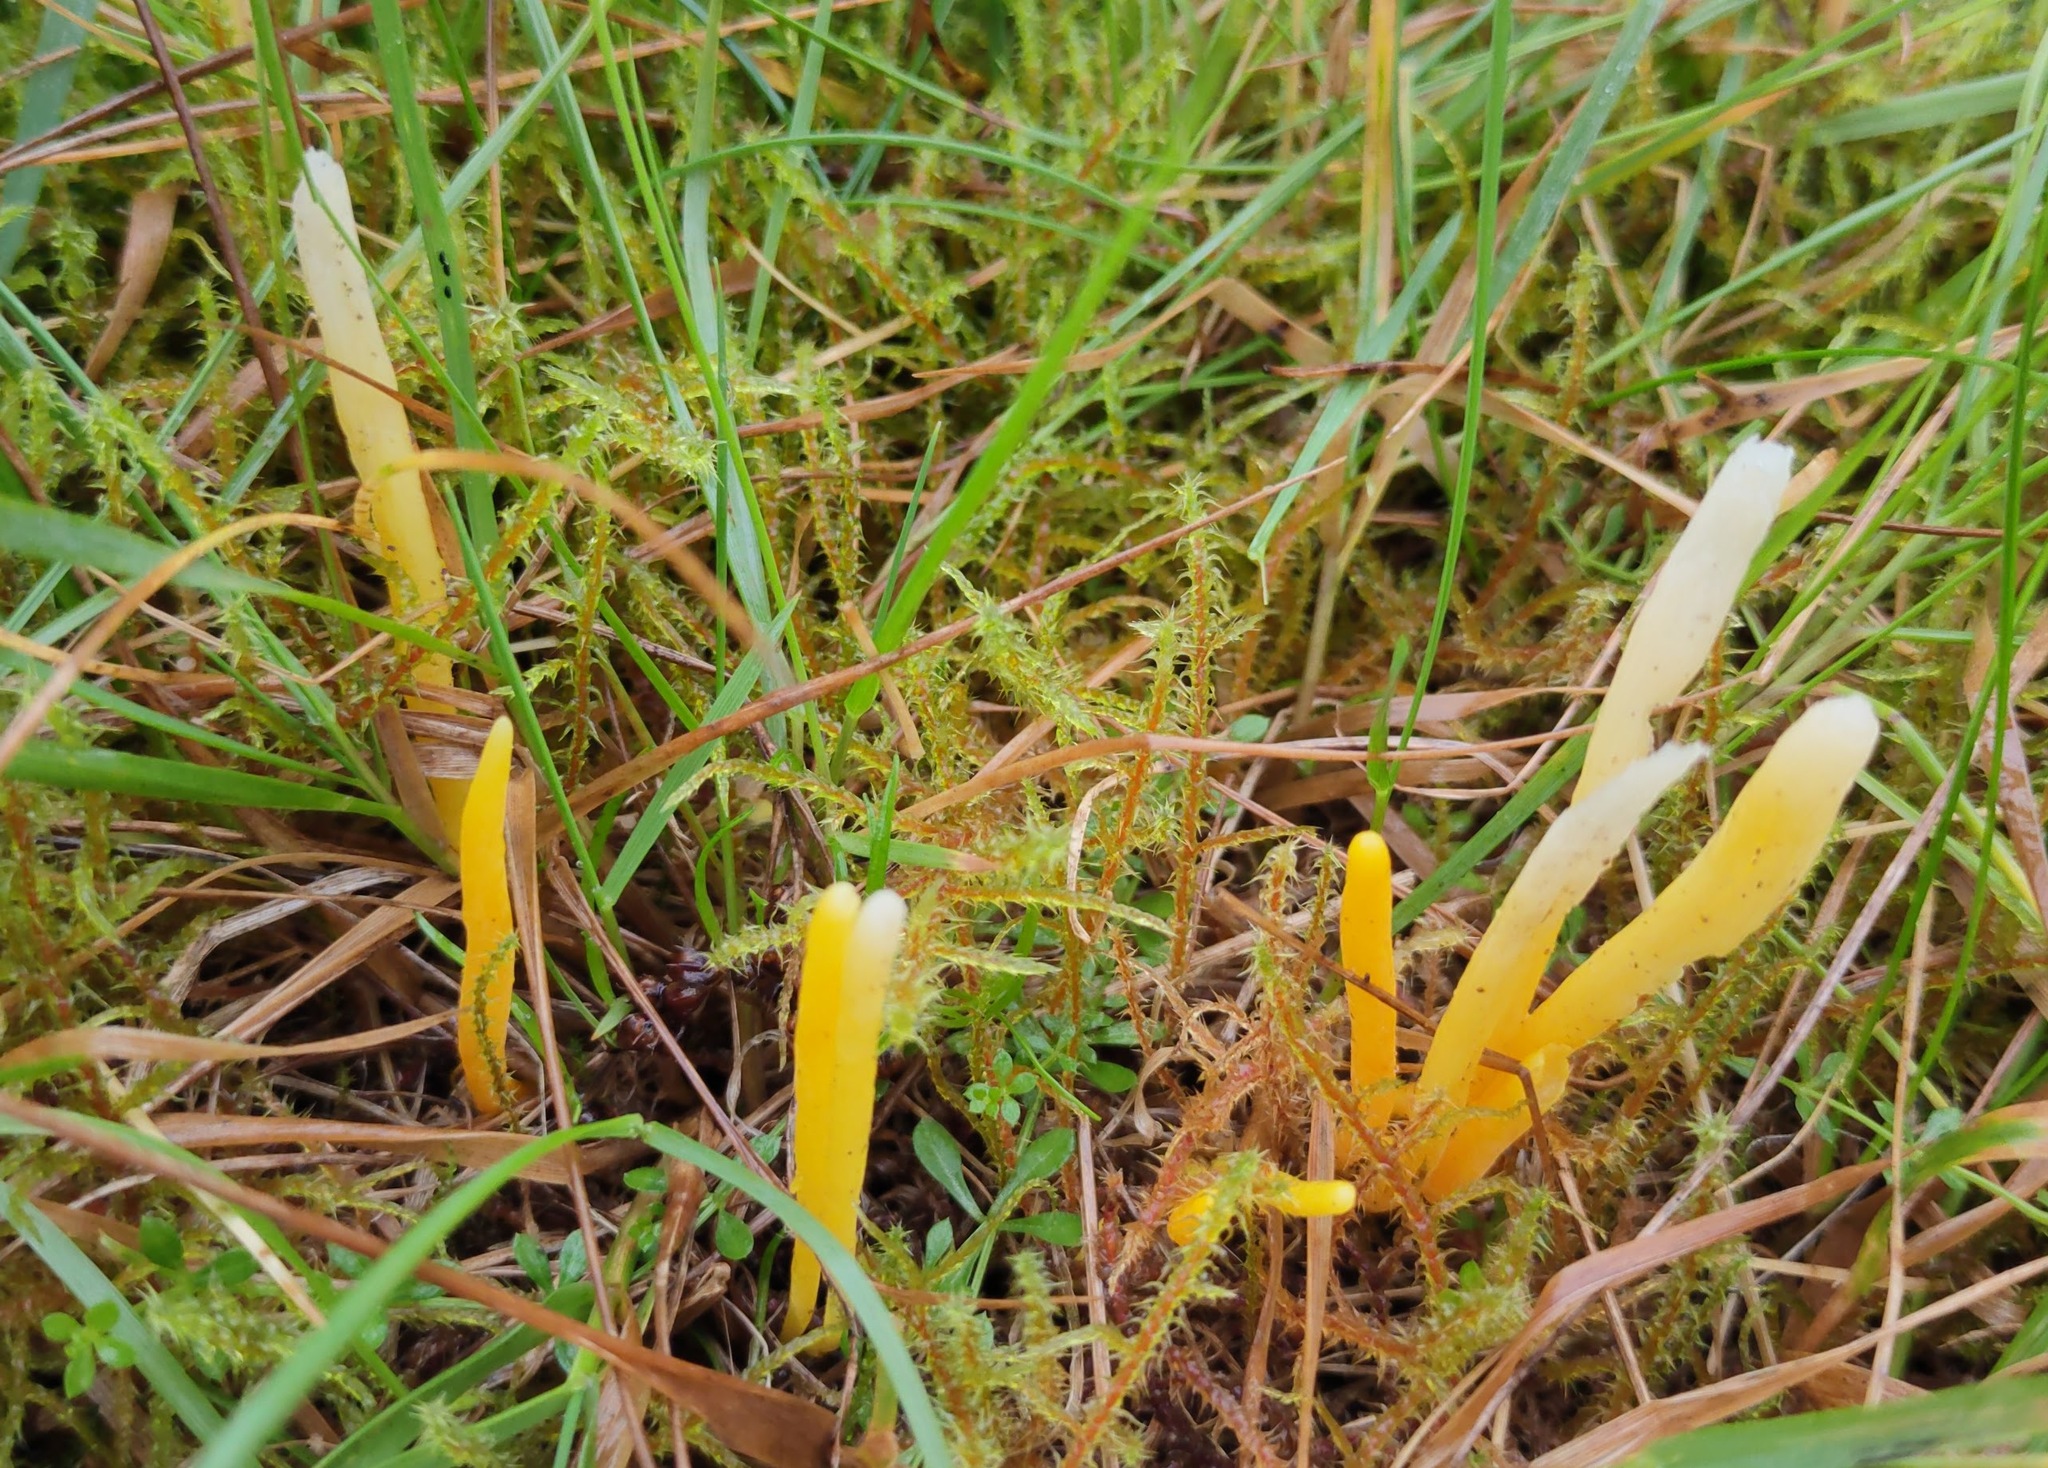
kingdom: Fungi
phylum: Basidiomycota
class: Agaricomycetes
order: Agaricales
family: Clavariaceae
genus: Clavulinopsis
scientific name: Clavulinopsis helvola
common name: Yellow club
